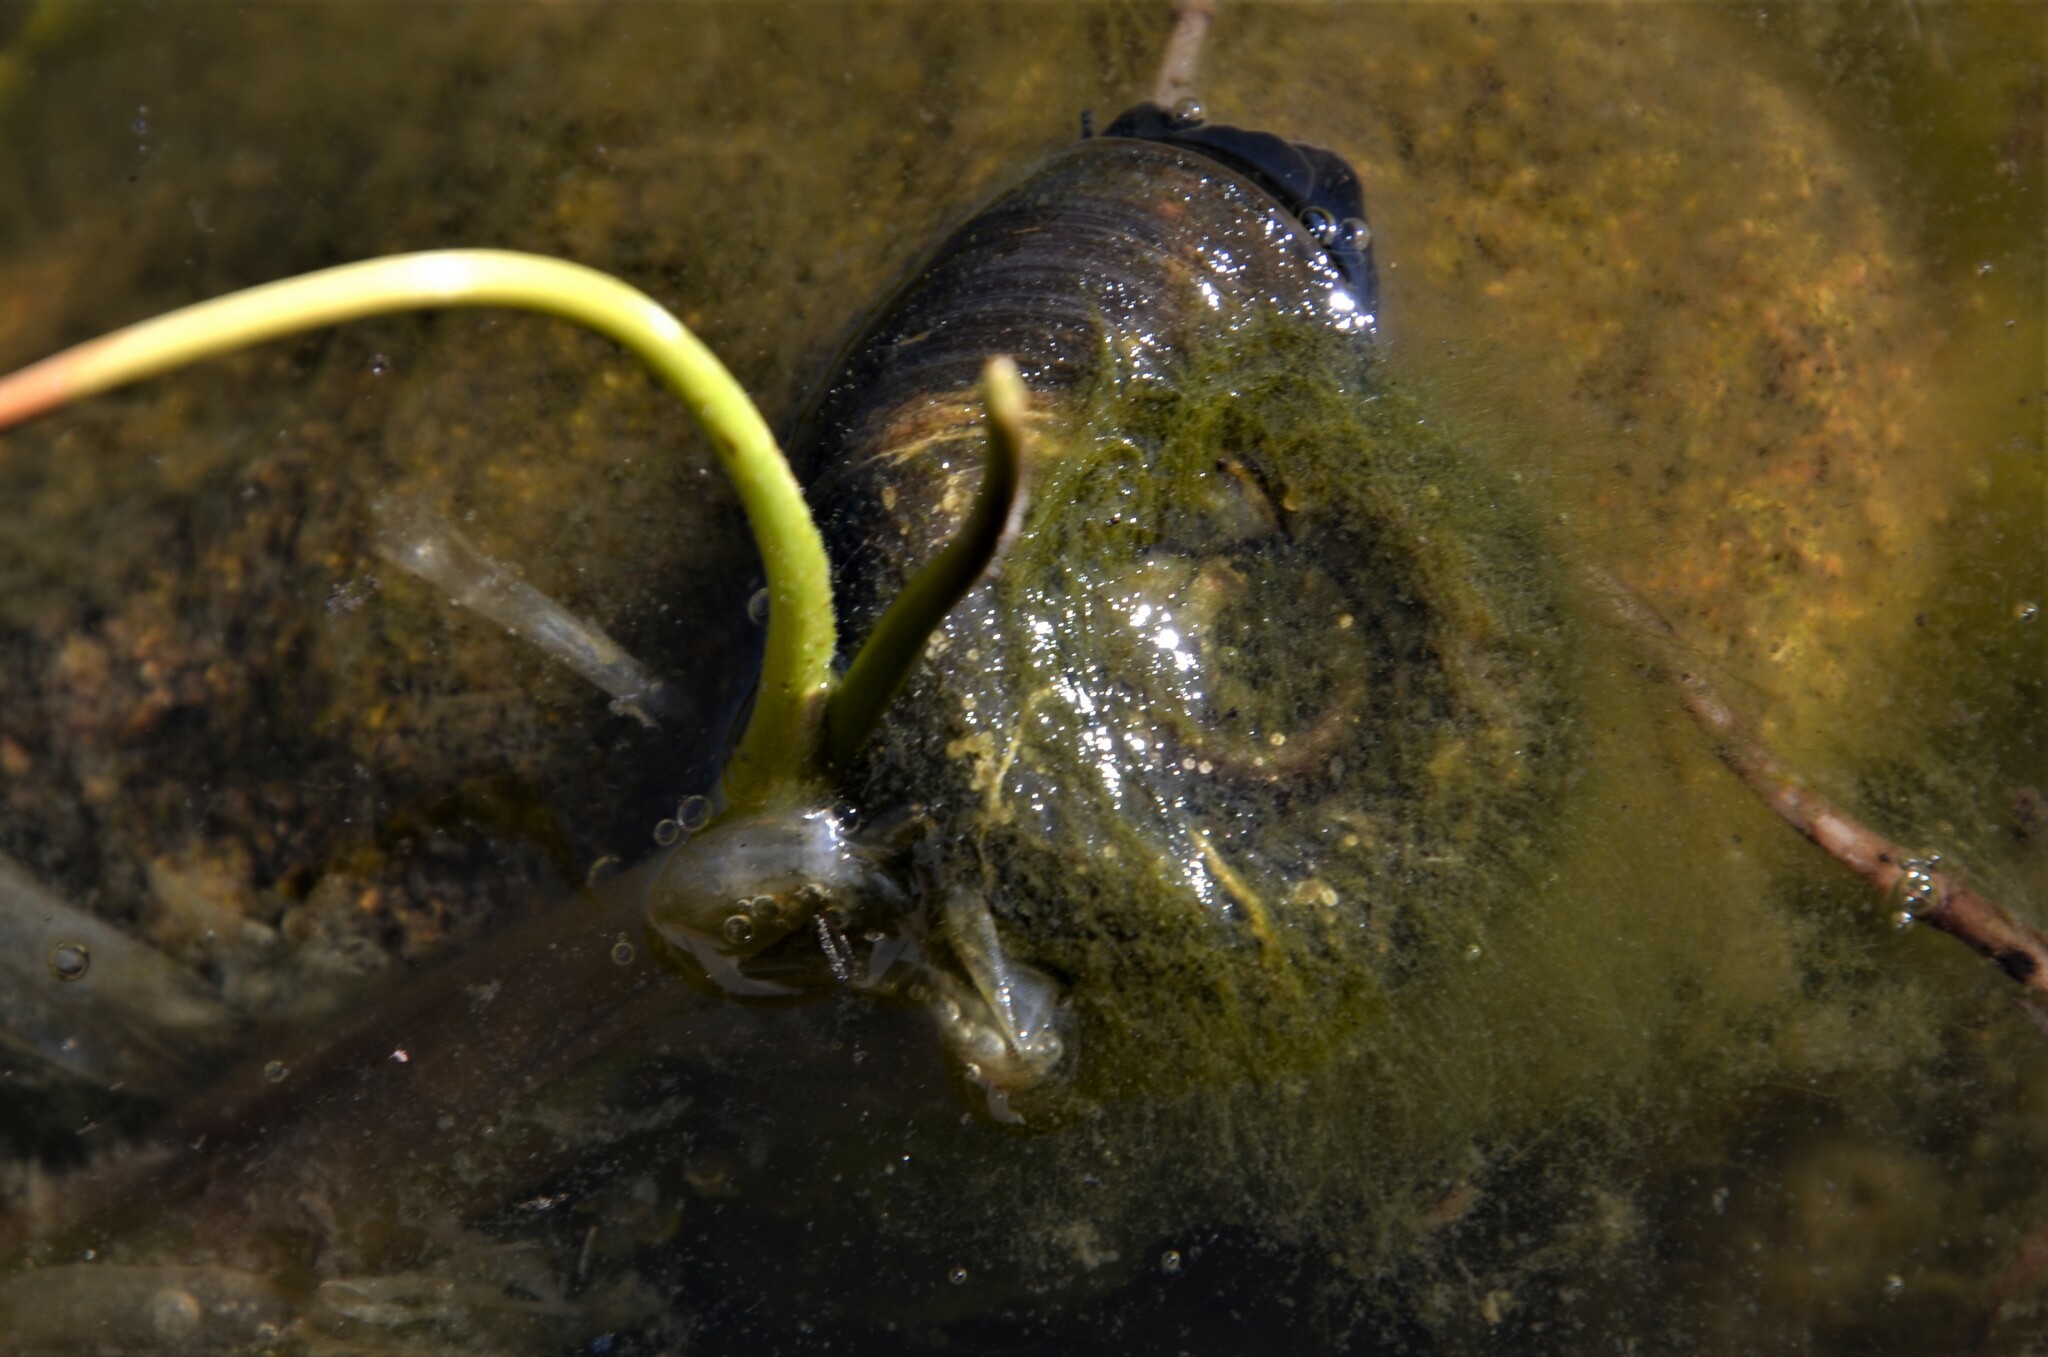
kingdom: Animalia
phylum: Mollusca
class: Gastropoda
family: Planorbidae
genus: Planorbarius
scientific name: Planorbarius corneus
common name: Great ramshorn
